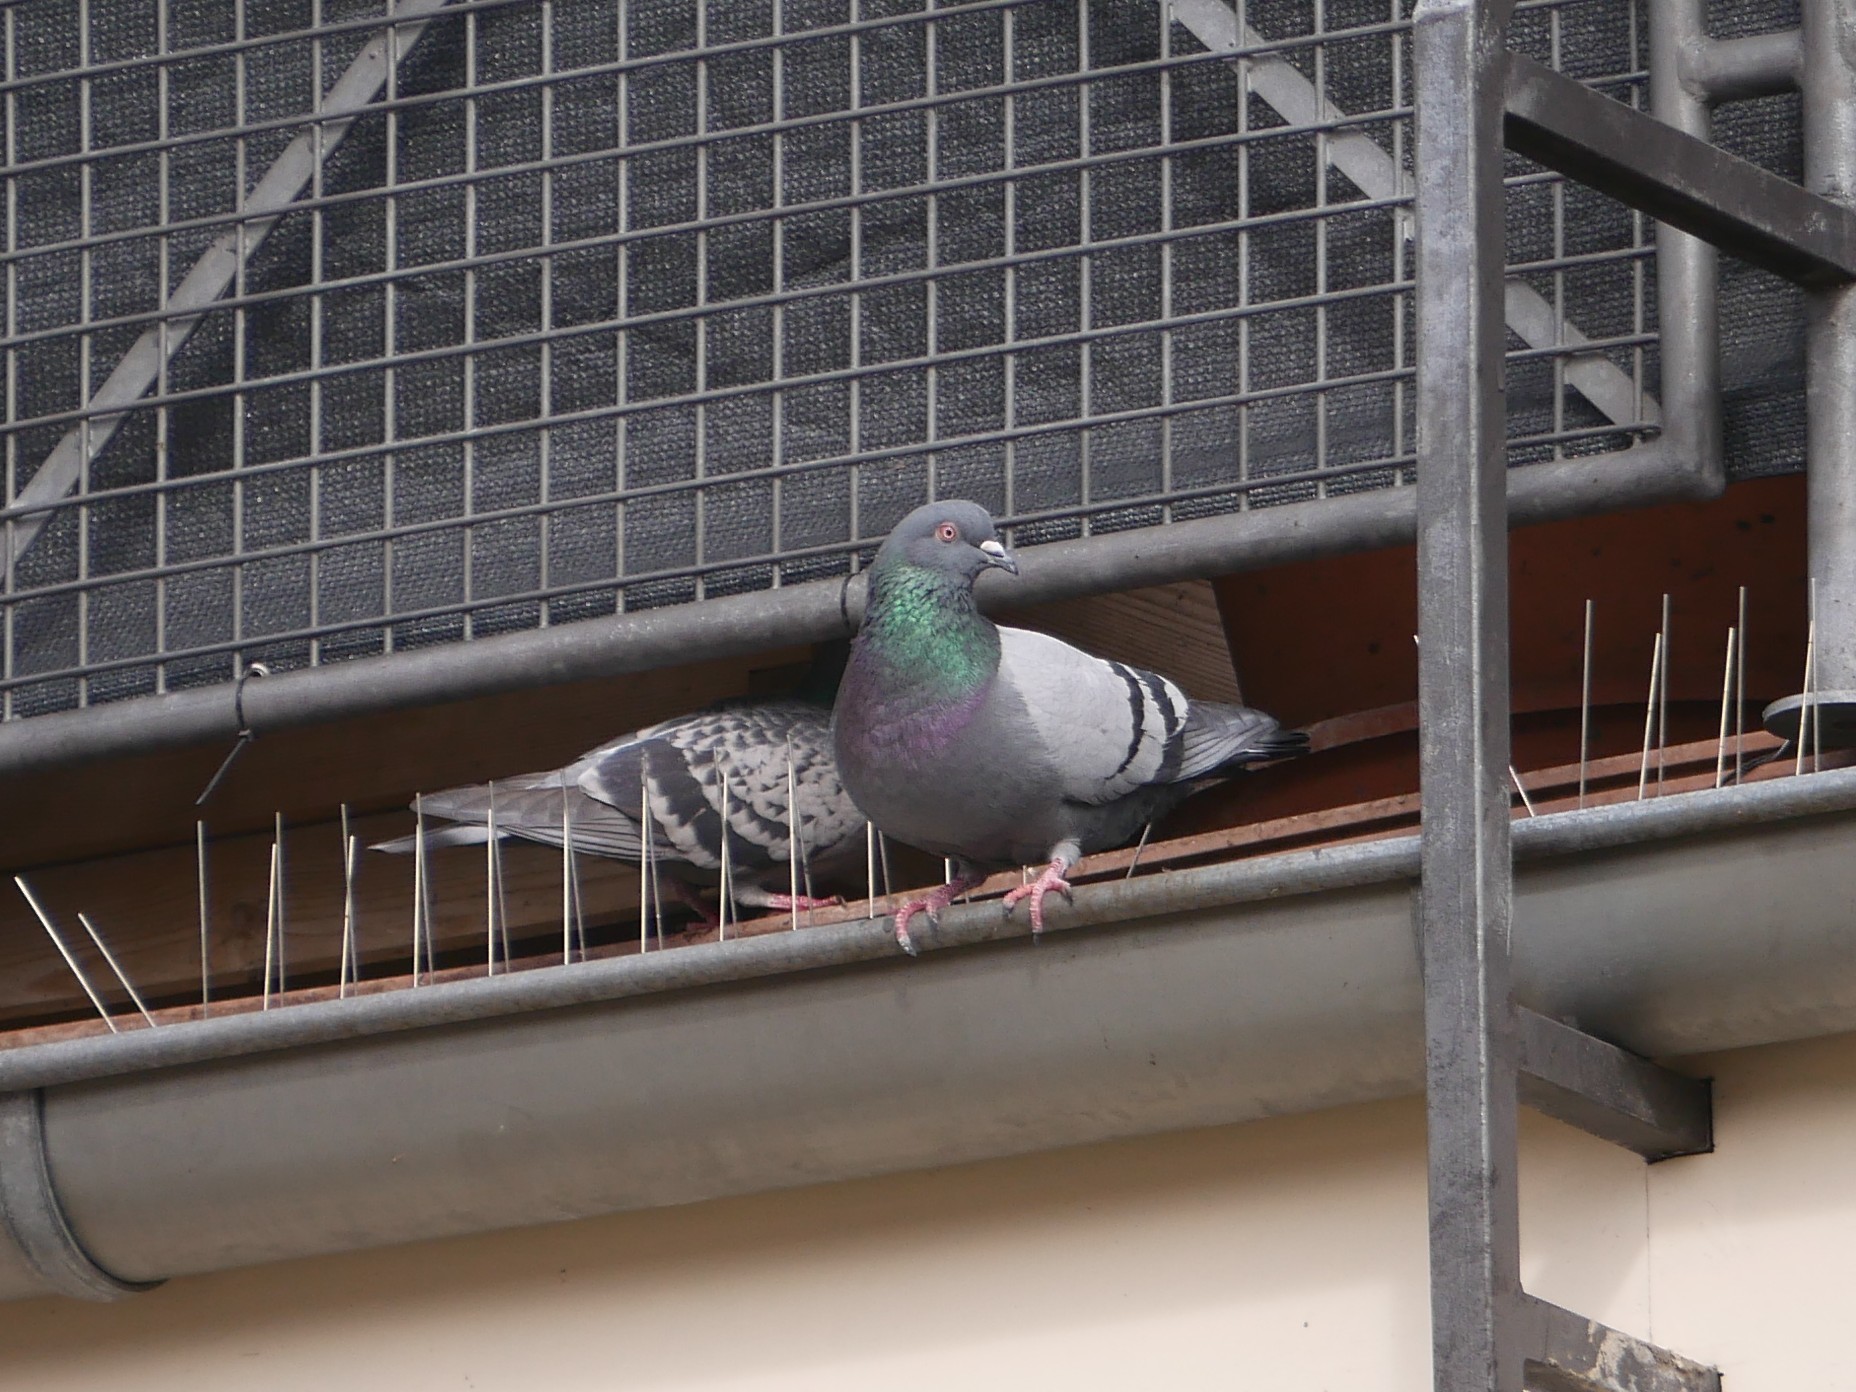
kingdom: Animalia
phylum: Chordata
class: Aves
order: Columbiformes
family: Columbidae
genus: Columba
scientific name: Columba livia
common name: Rock pigeon
